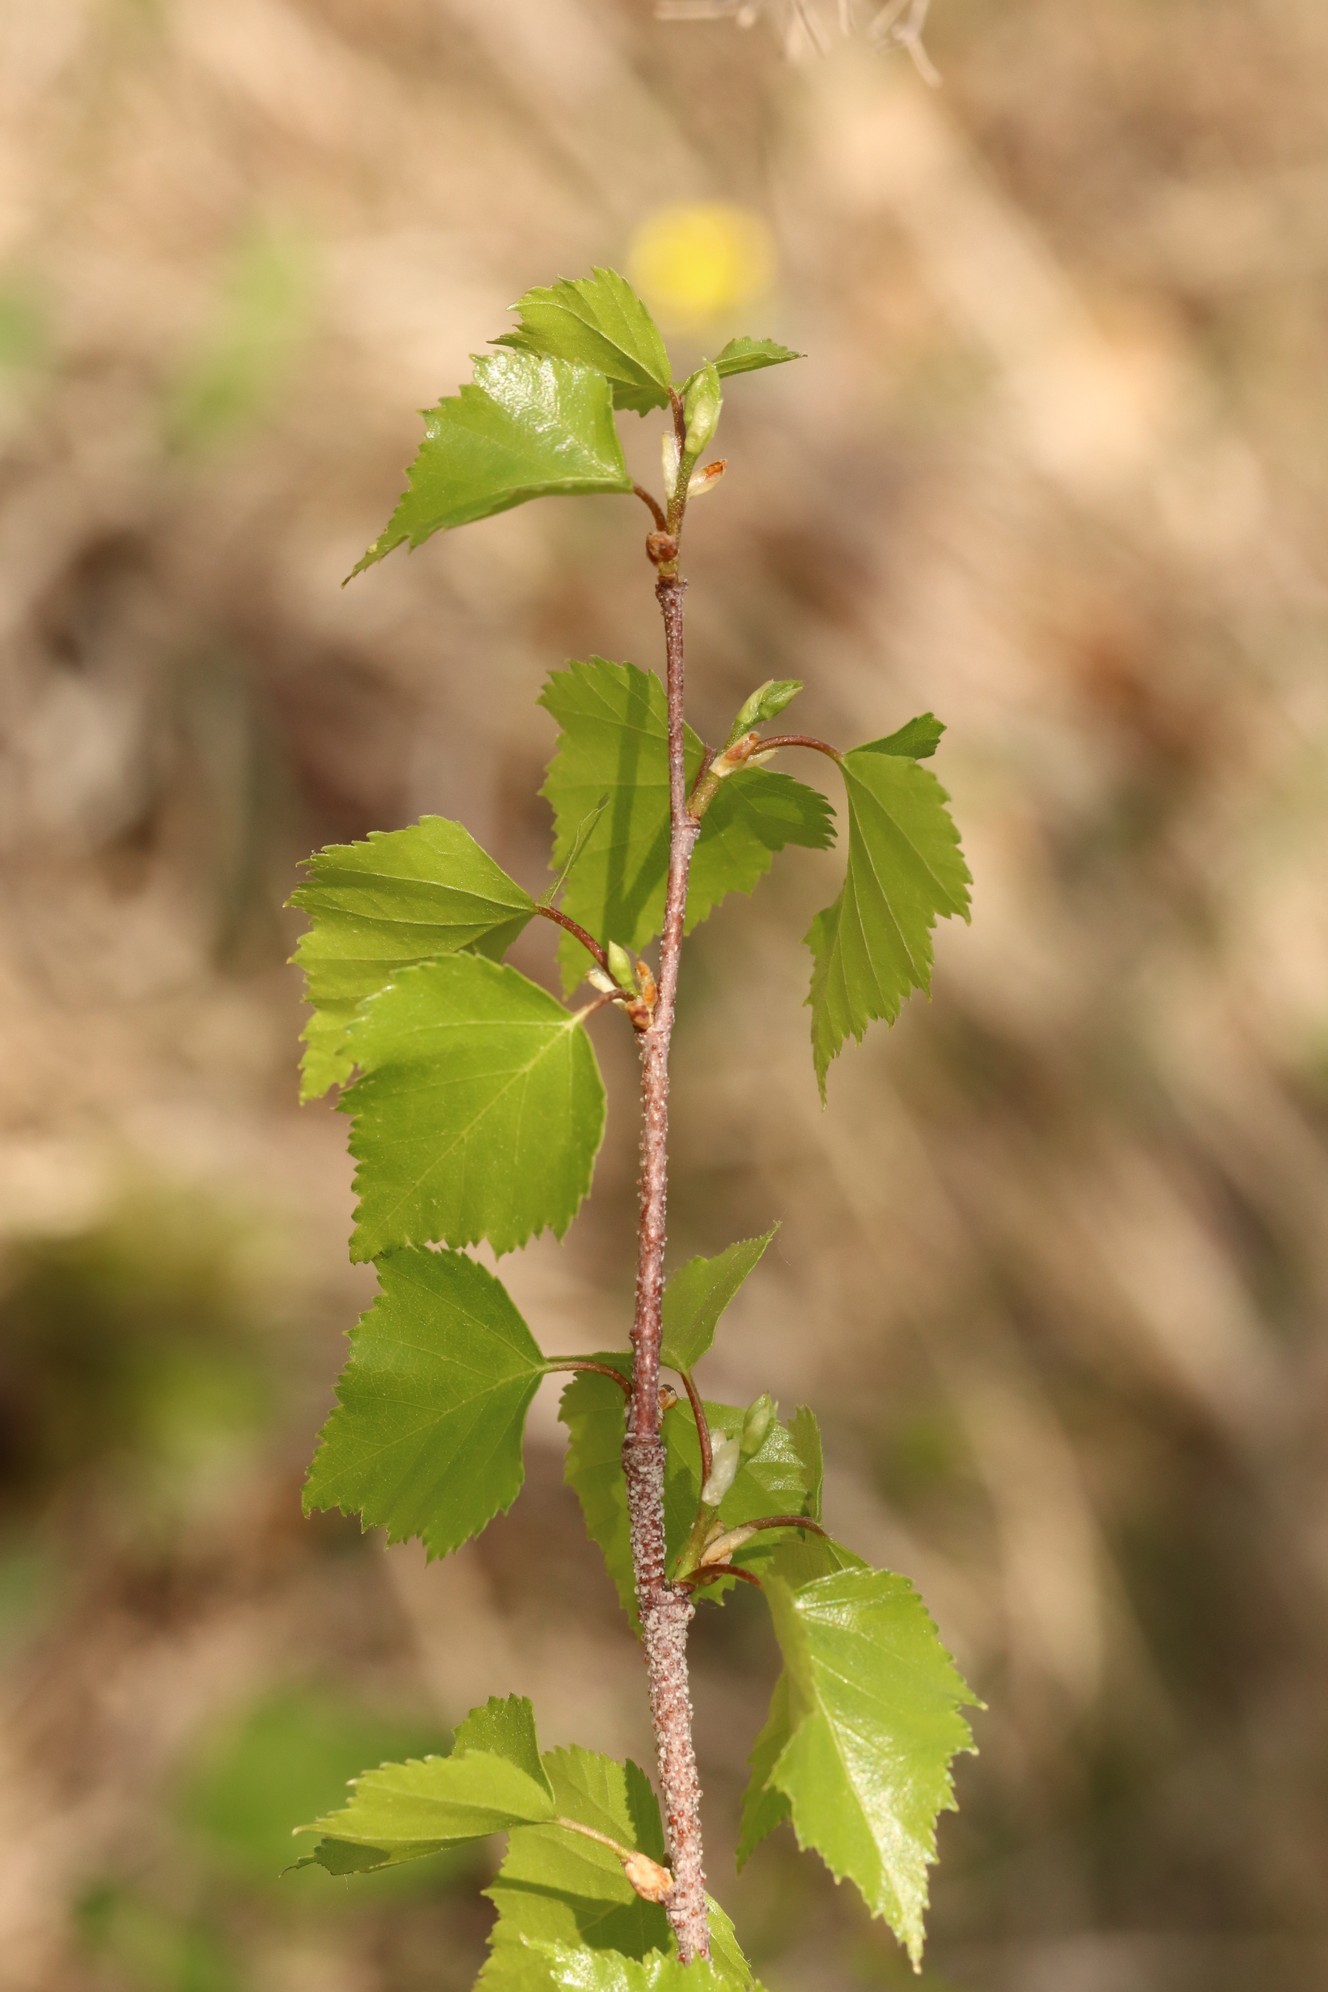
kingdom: Plantae
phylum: Tracheophyta
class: Magnoliopsida
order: Fagales
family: Betulaceae
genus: Betula
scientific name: Betula pendula
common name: Silver birch
